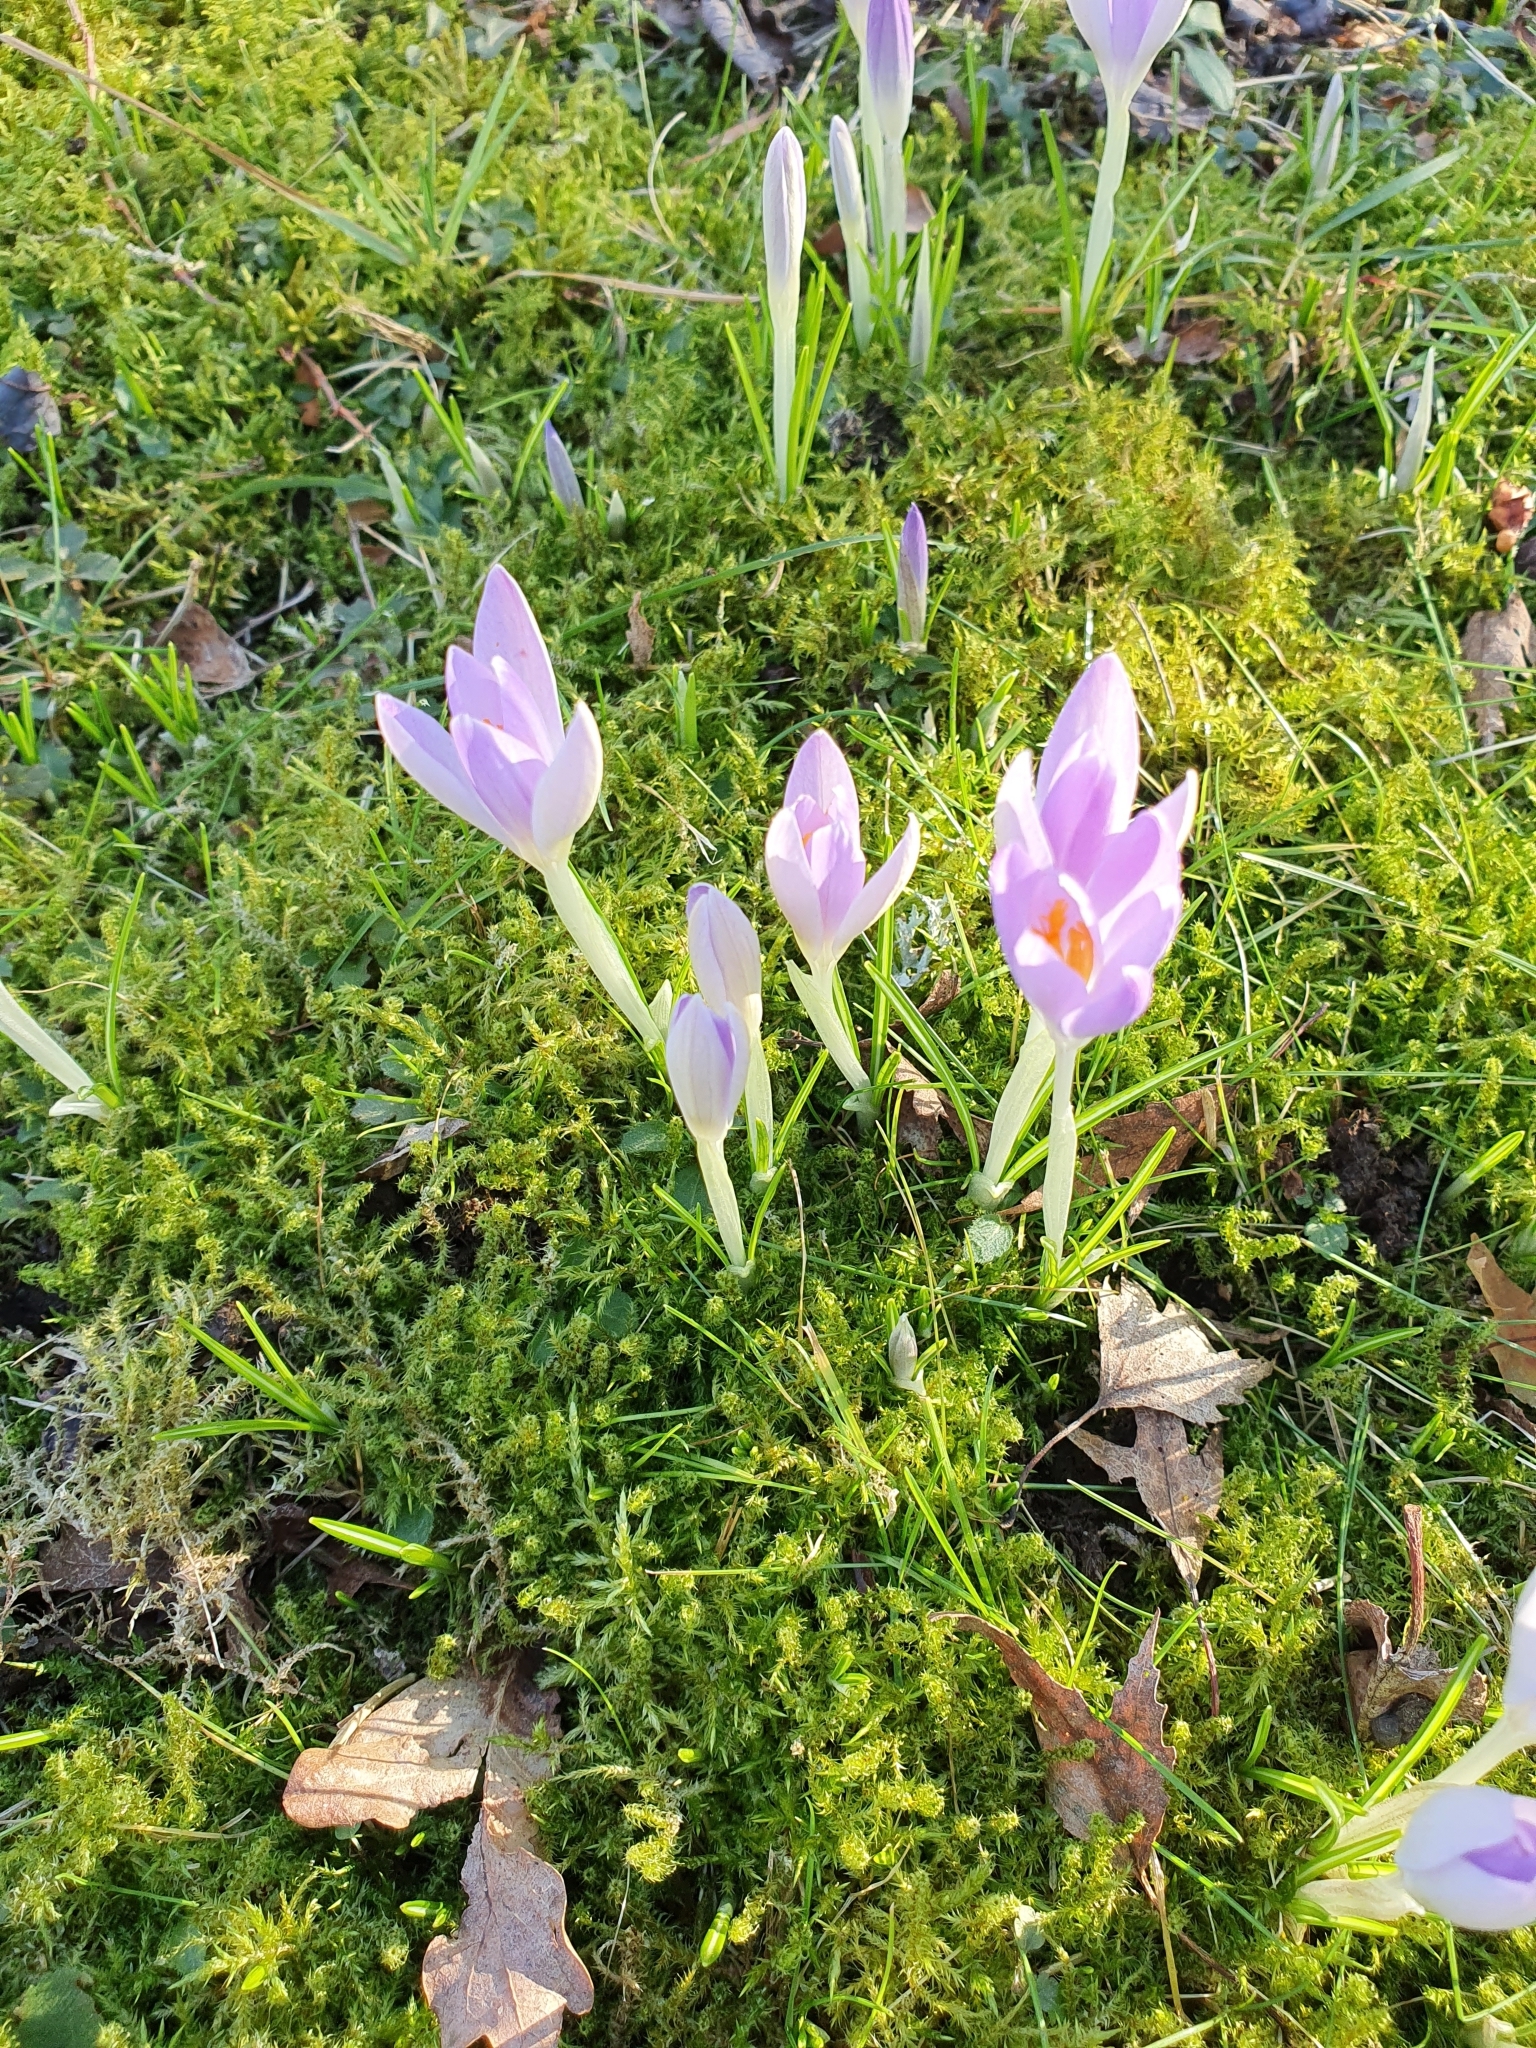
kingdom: Plantae
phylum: Tracheophyta
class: Liliopsida
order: Asparagales
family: Iridaceae
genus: Crocus
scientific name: Crocus tommasinianus
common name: Early crocus
